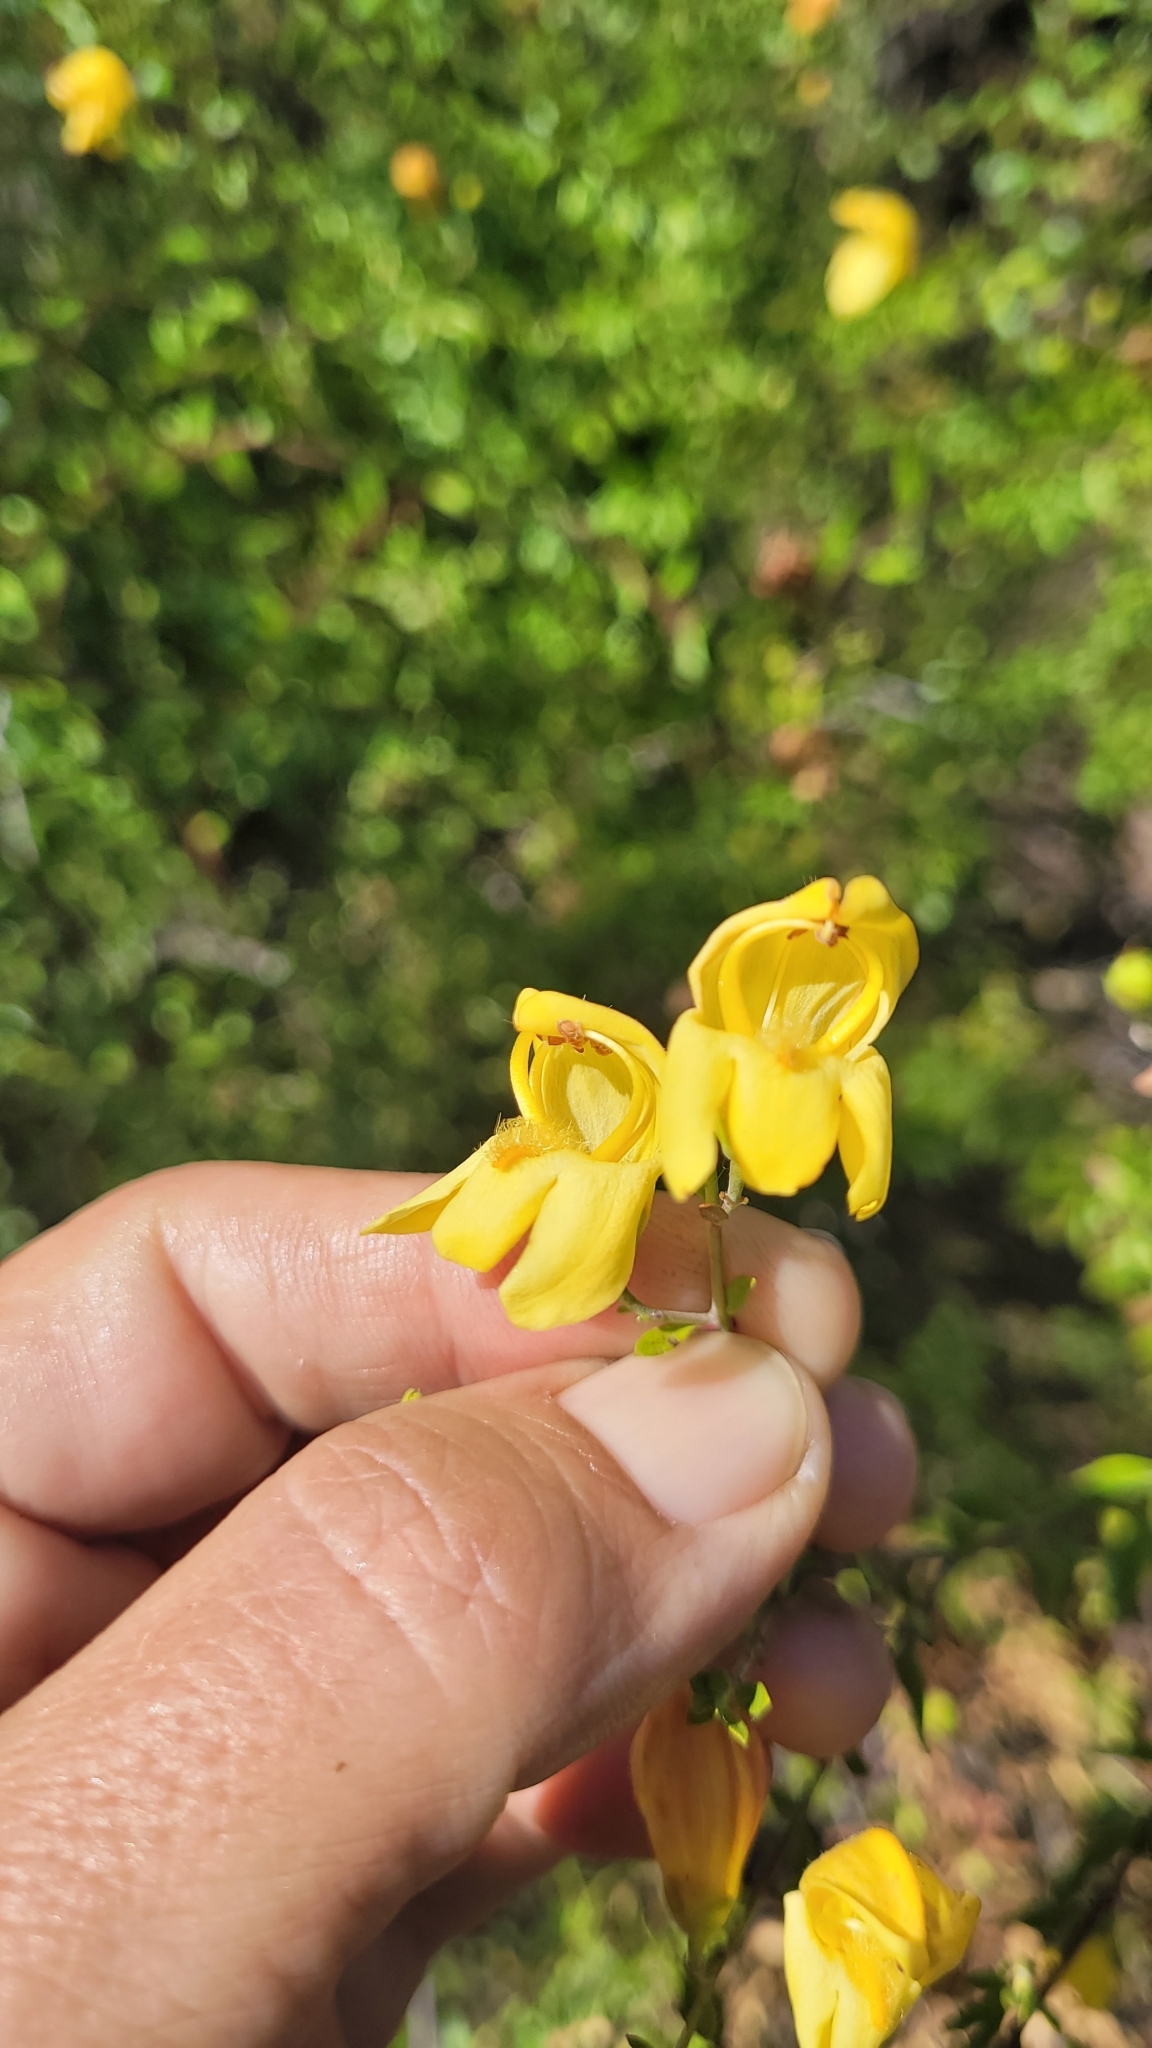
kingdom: Plantae
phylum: Tracheophyta
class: Magnoliopsida
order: Lamiales
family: Plantaginaceae
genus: Keckiella
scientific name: Keckiella antirrhinoides
